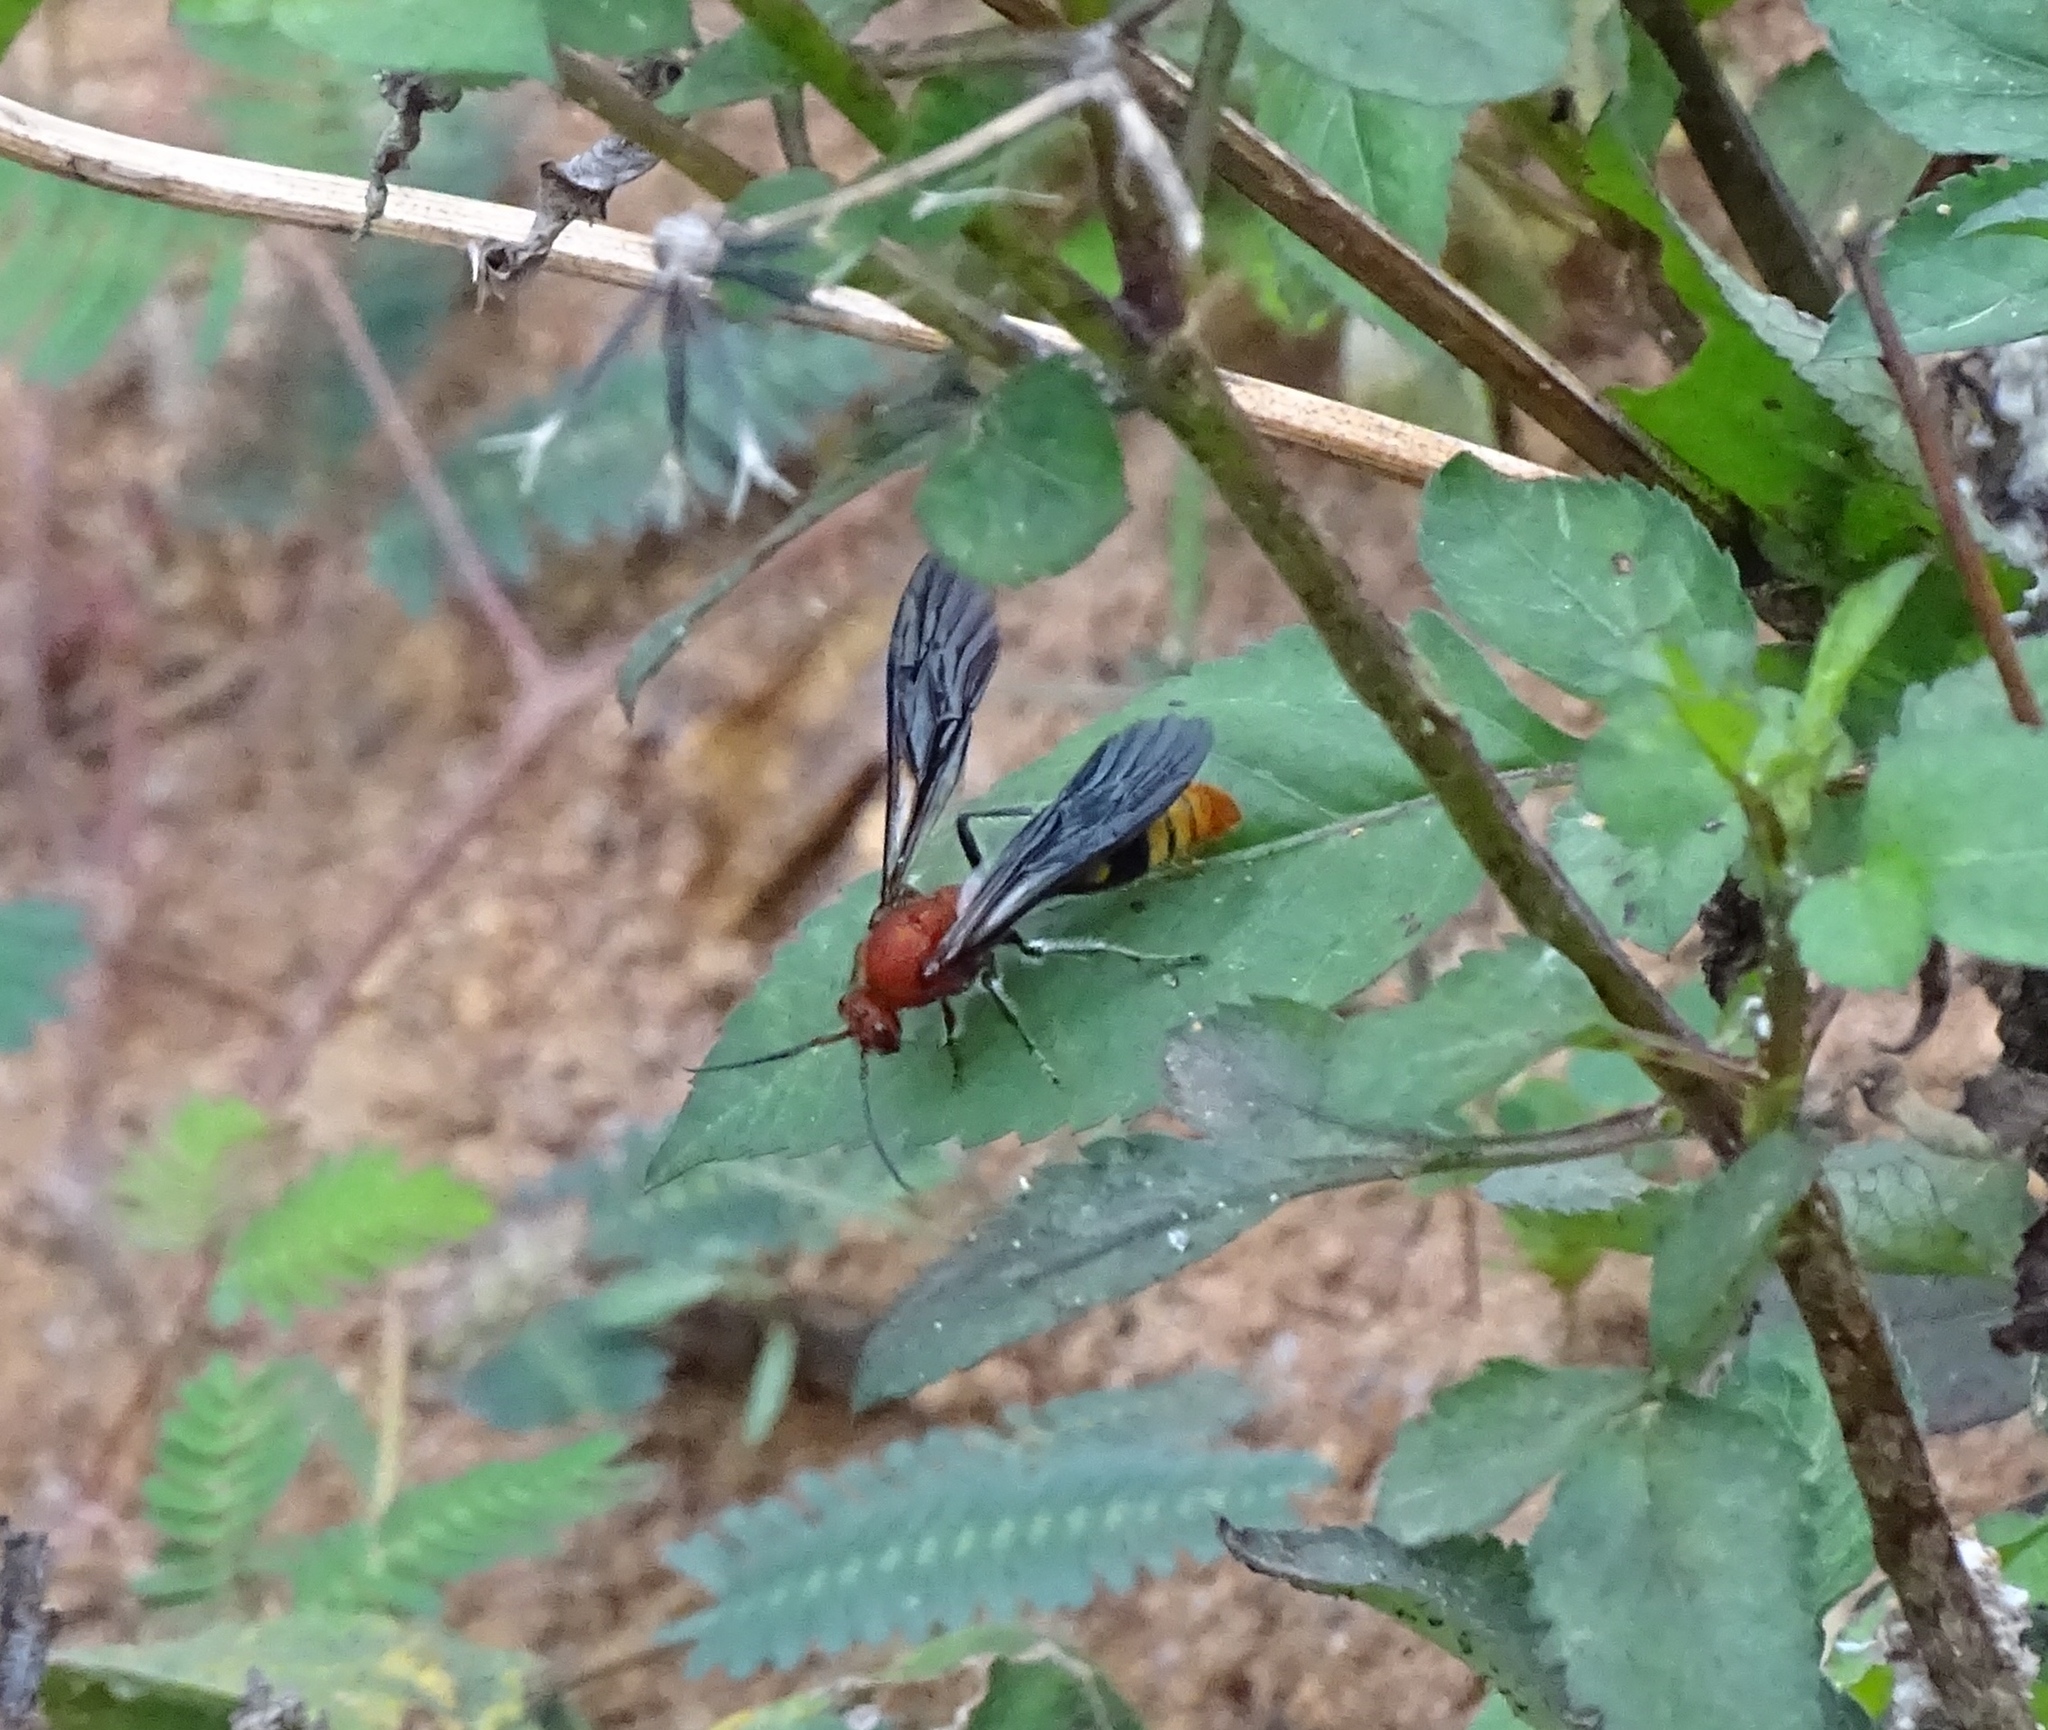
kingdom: Animalia
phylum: Arthropoda
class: Insecta
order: Hymenoptera
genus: Aureotilla
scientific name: Aureotilla
